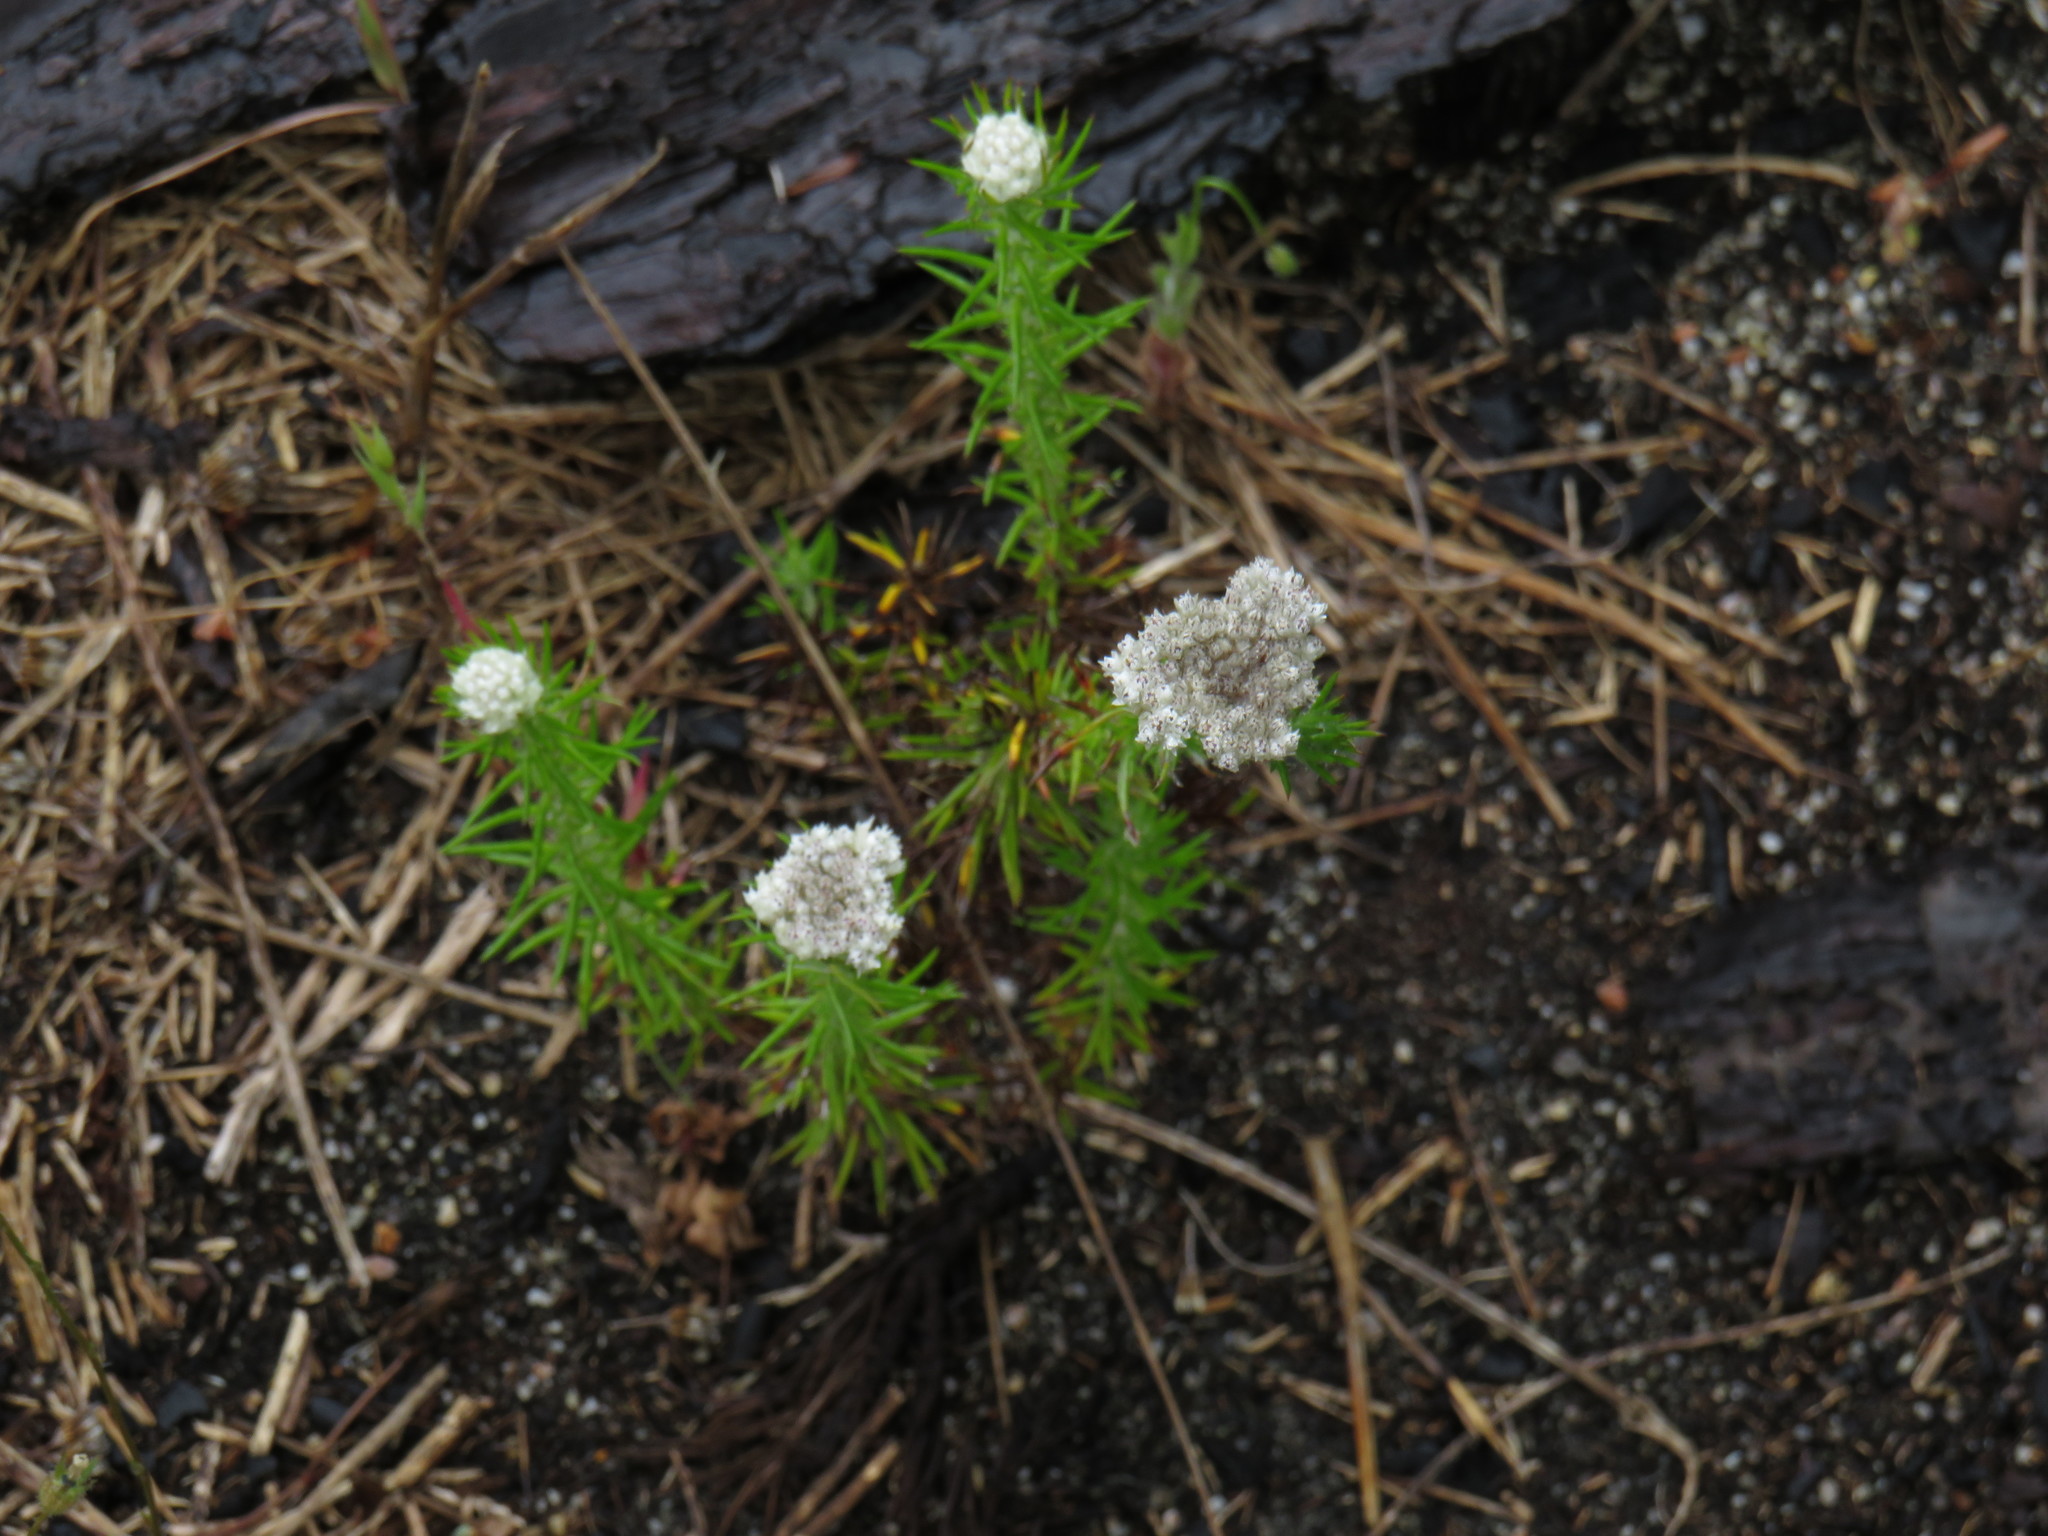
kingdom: Plantae
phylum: Tracheophyta
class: Magnoliopsida
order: Asterales
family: Asteraceae
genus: Metalasia
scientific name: Metalasia pulchella
